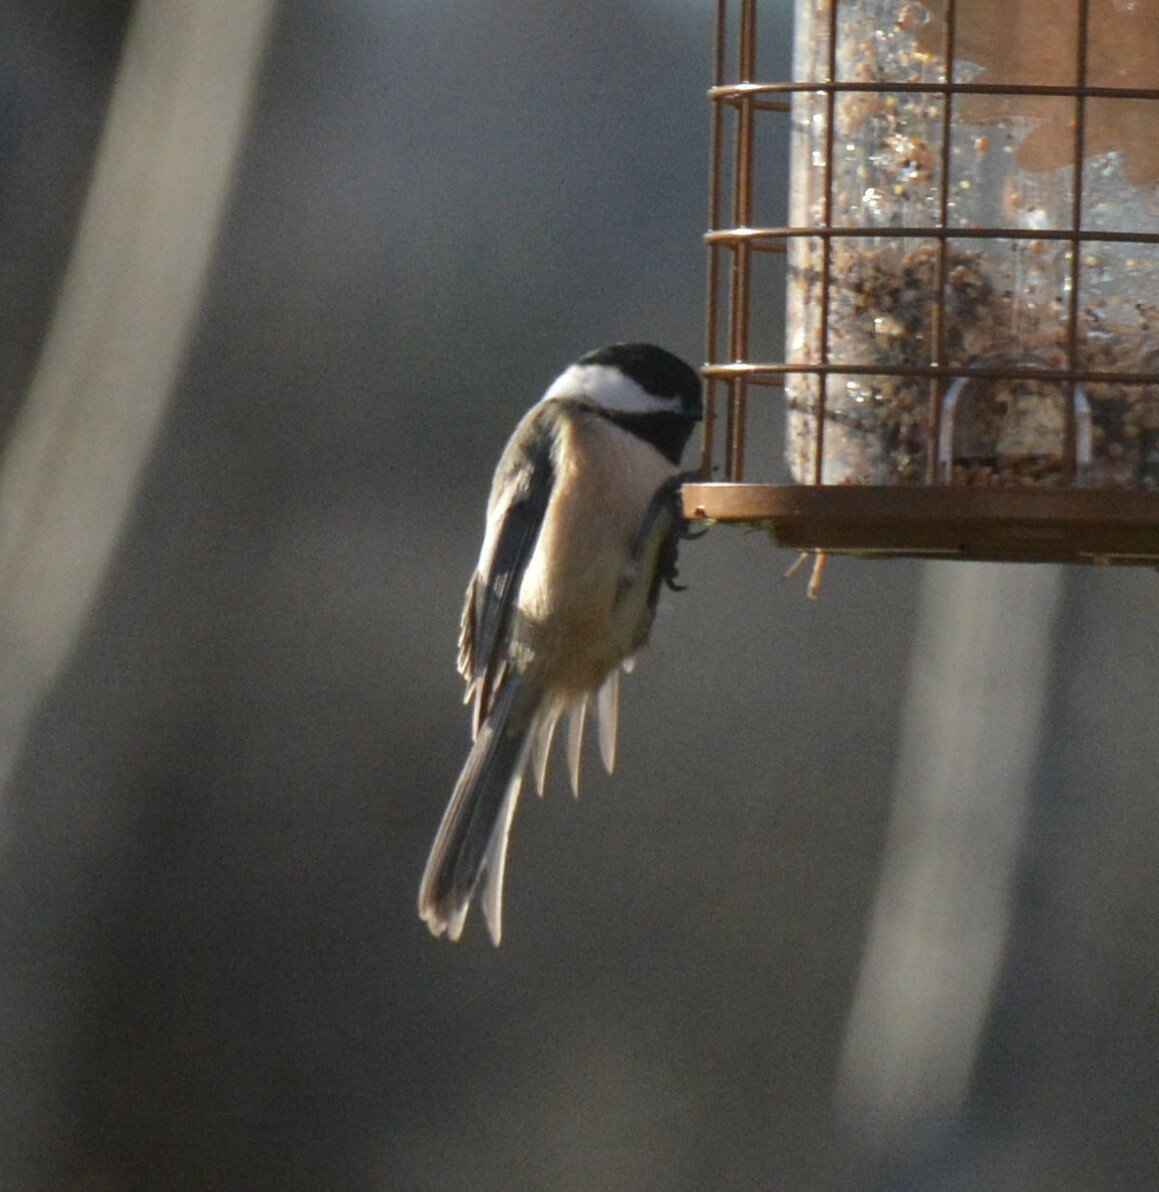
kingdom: Animalia
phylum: Chordata
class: Aves
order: Passeriformes
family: Paridae
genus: Poecile
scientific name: Poecile atricapillus
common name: Black-capped chickadee
